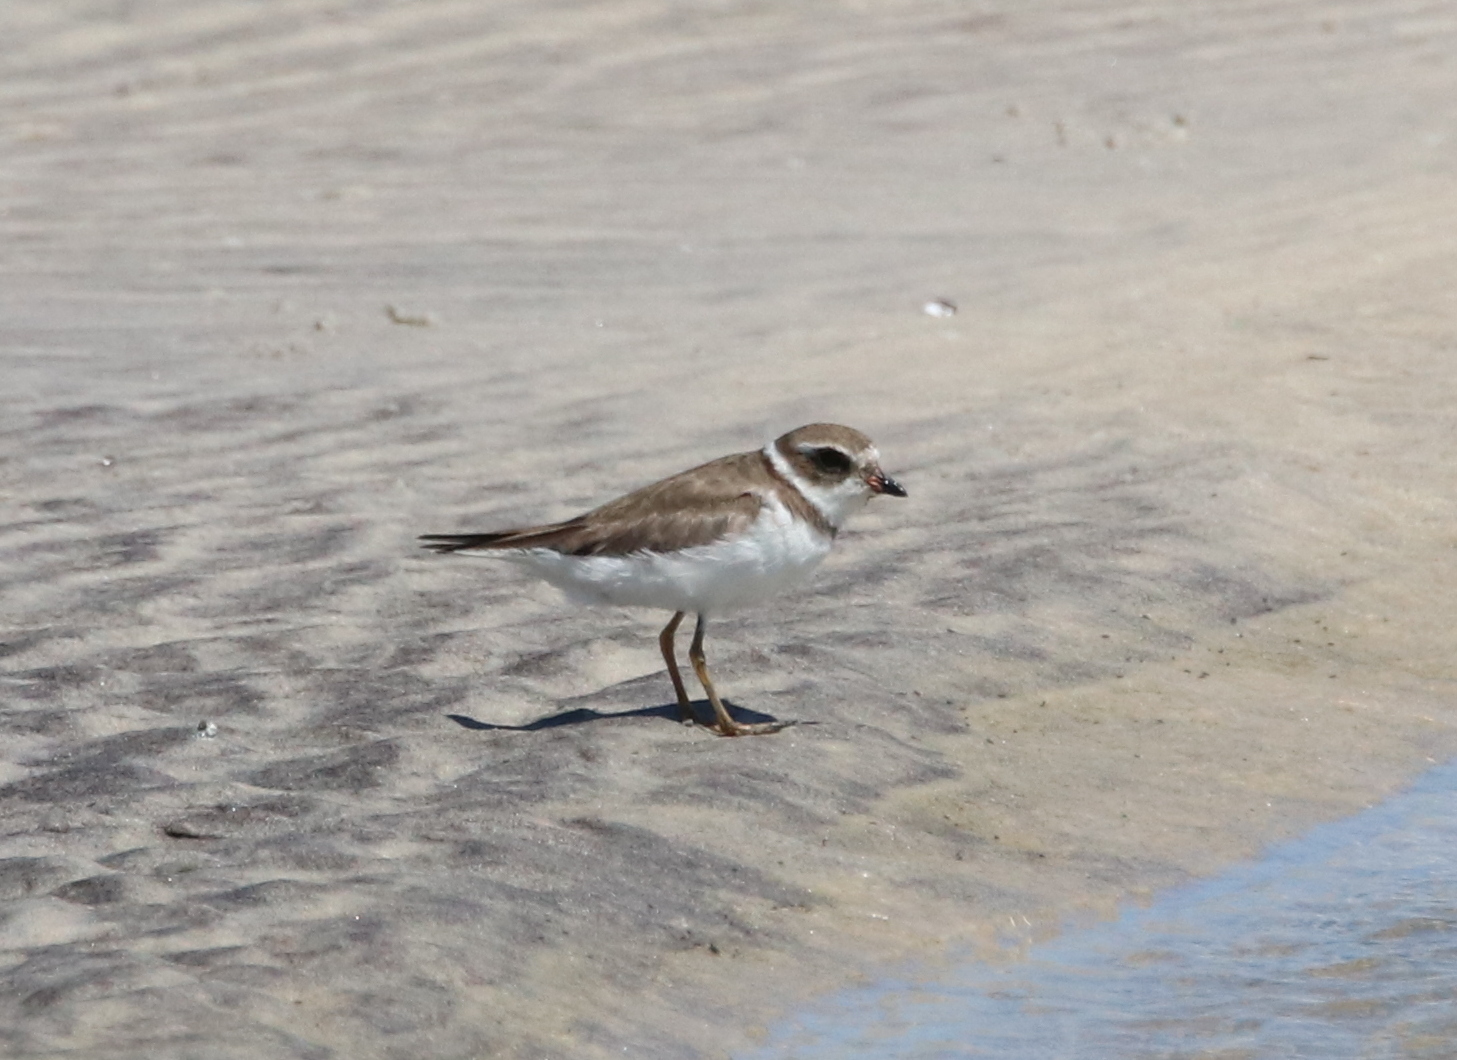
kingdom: Animalia
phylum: Chordata
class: Aves
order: Charadriiformes
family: Charadriidae
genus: Charadrius
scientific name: Charadrius semipalmatus
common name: Semipalmated plover
